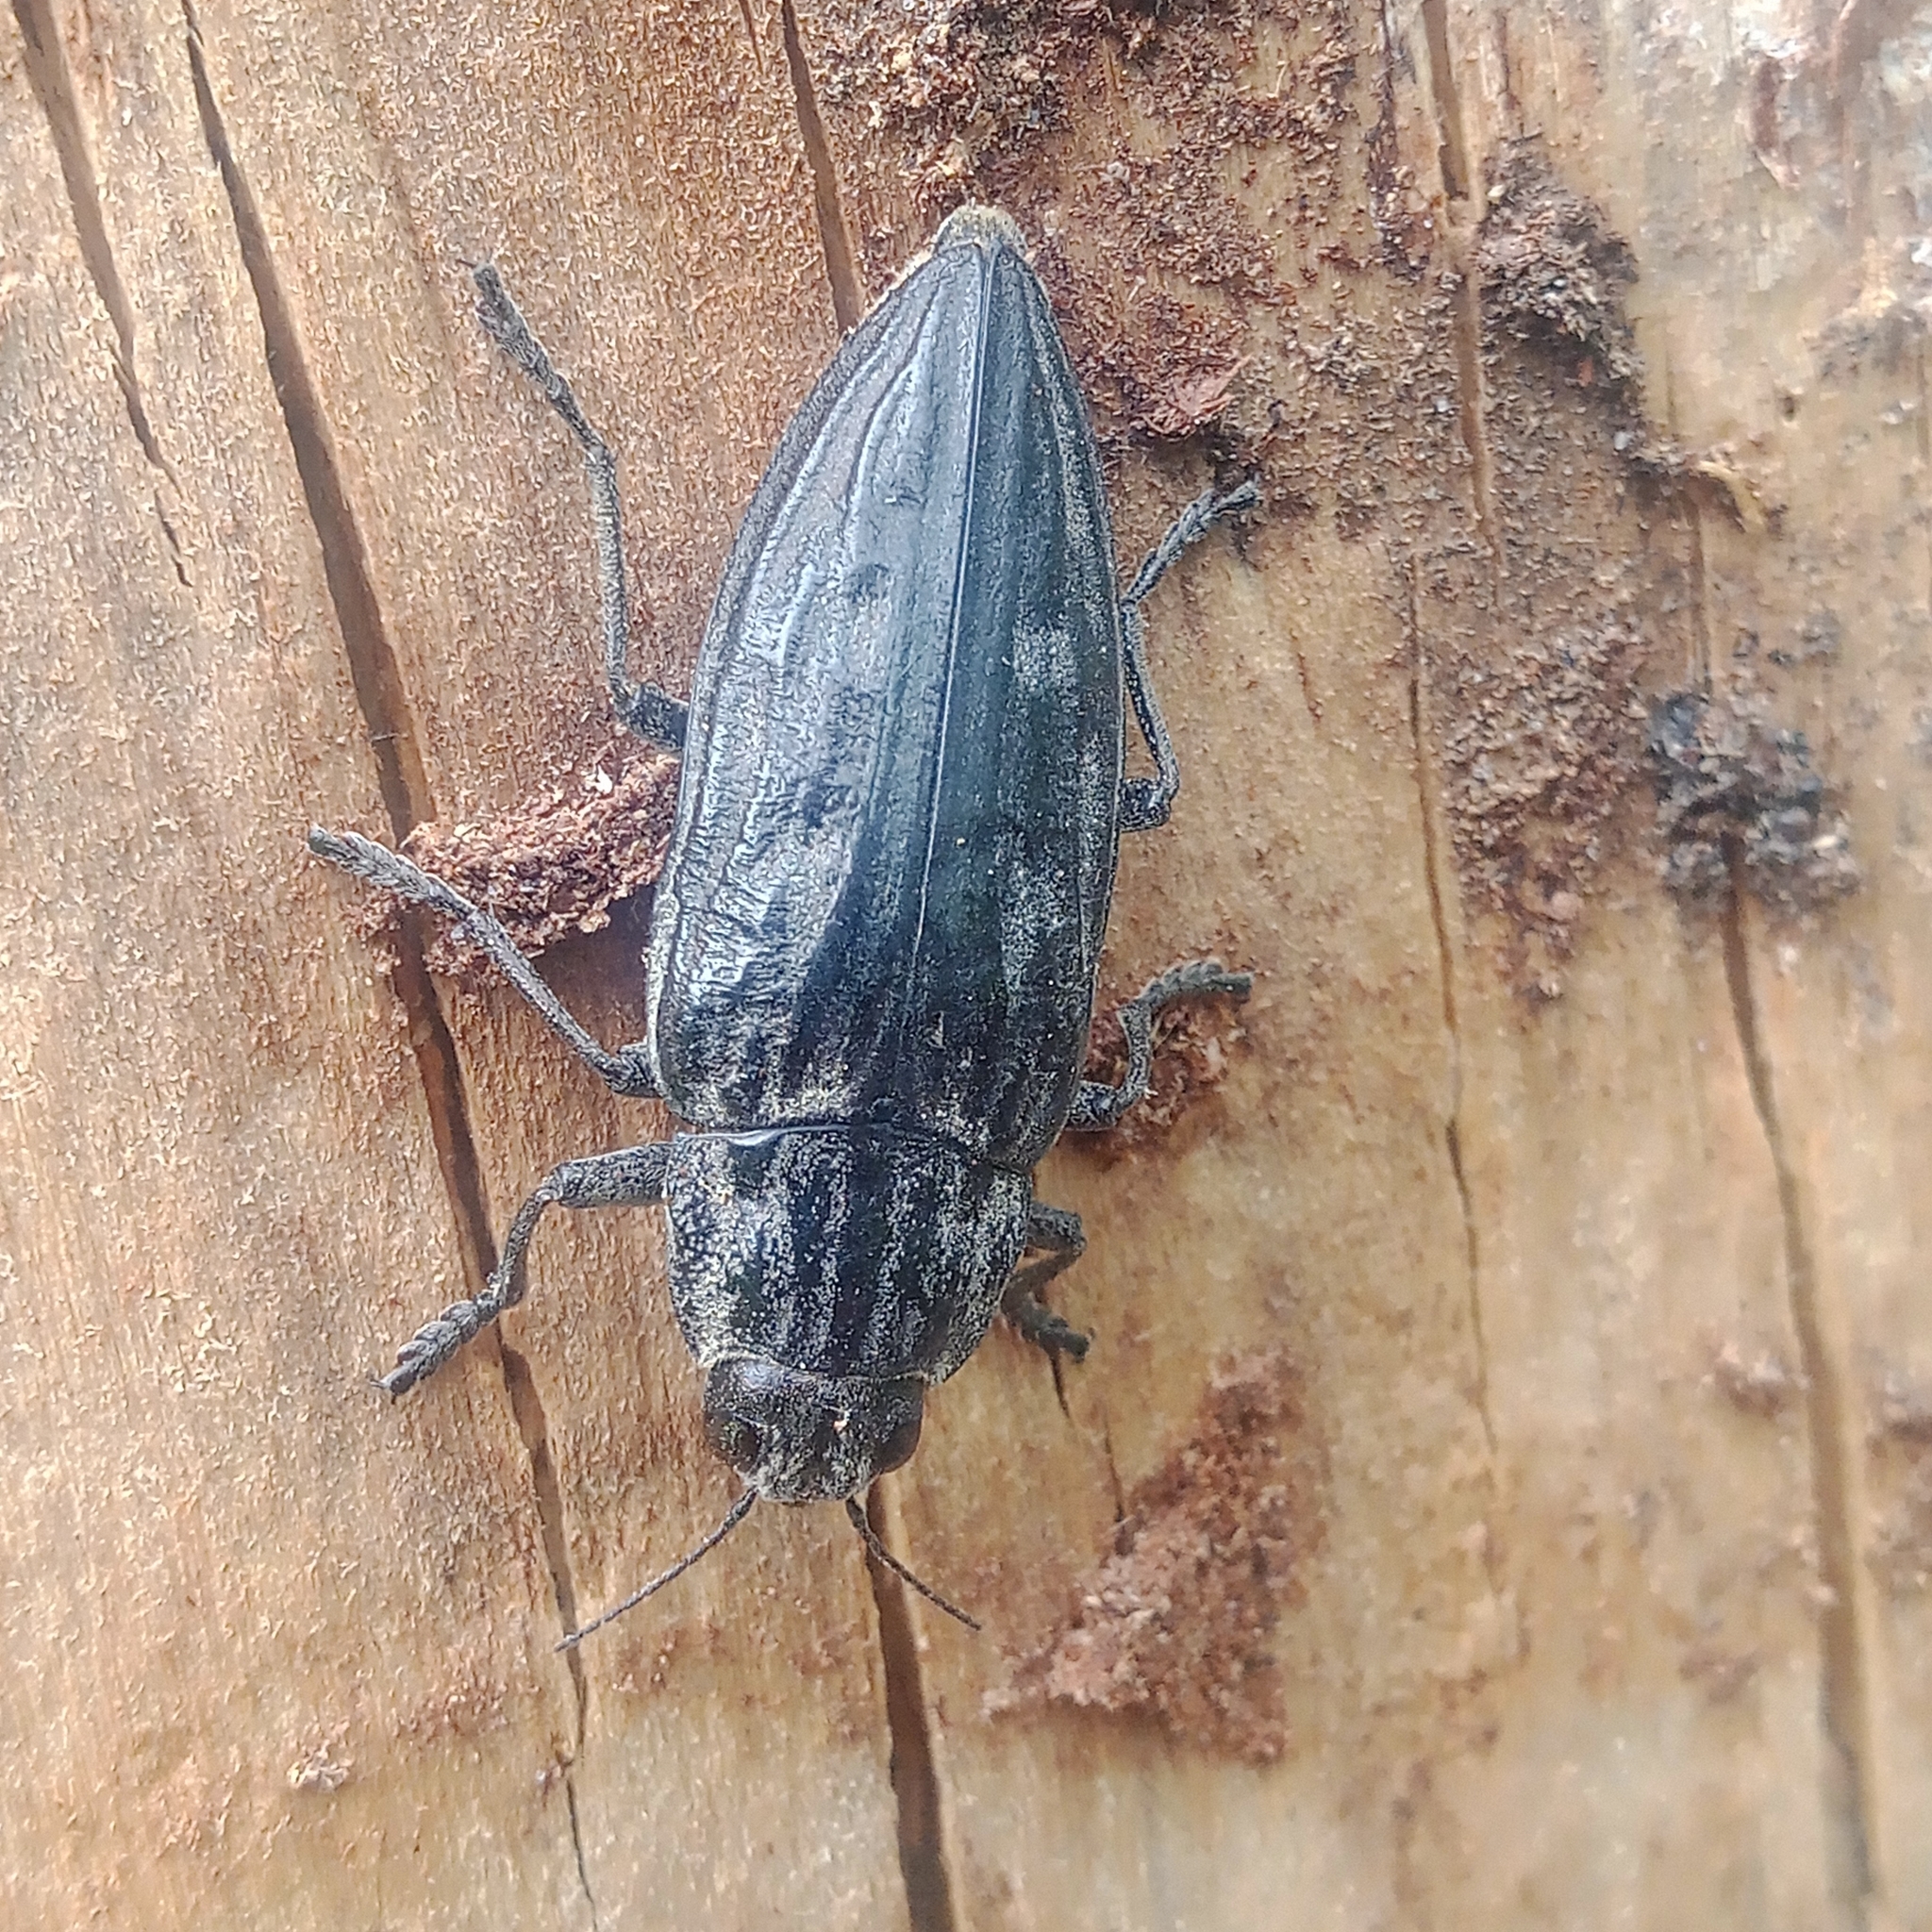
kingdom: Animalia
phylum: Arthropoda
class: Insecta
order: Coleoptera
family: Buprestidae
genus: Chalcophora
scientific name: Chalcophora mariana
